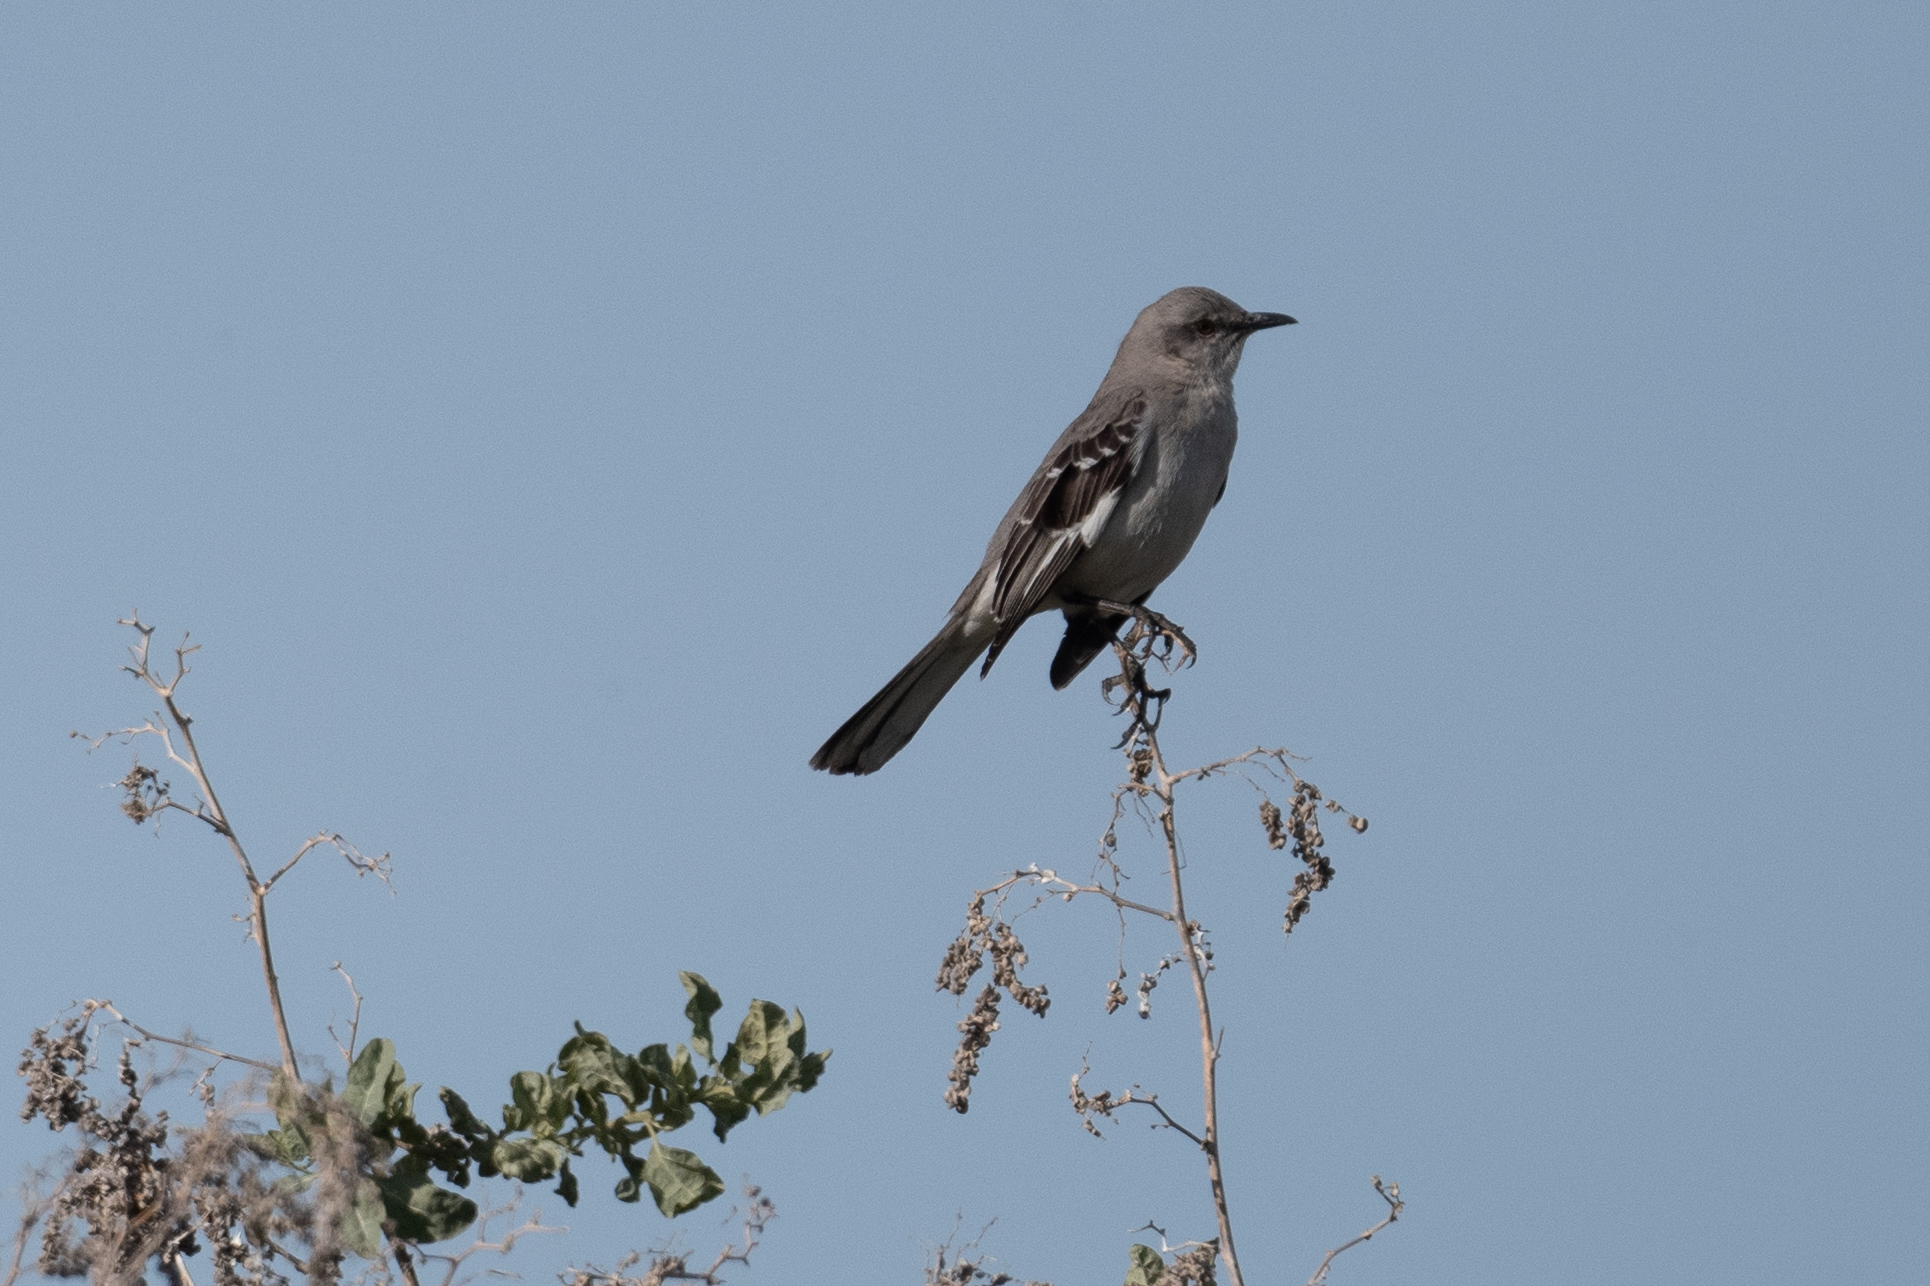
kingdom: Animalia
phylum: Chordata
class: Aves
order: Passeriformes
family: Mimidae
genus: Mimus
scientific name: Mimus polyglottos
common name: Northern mockingbird
